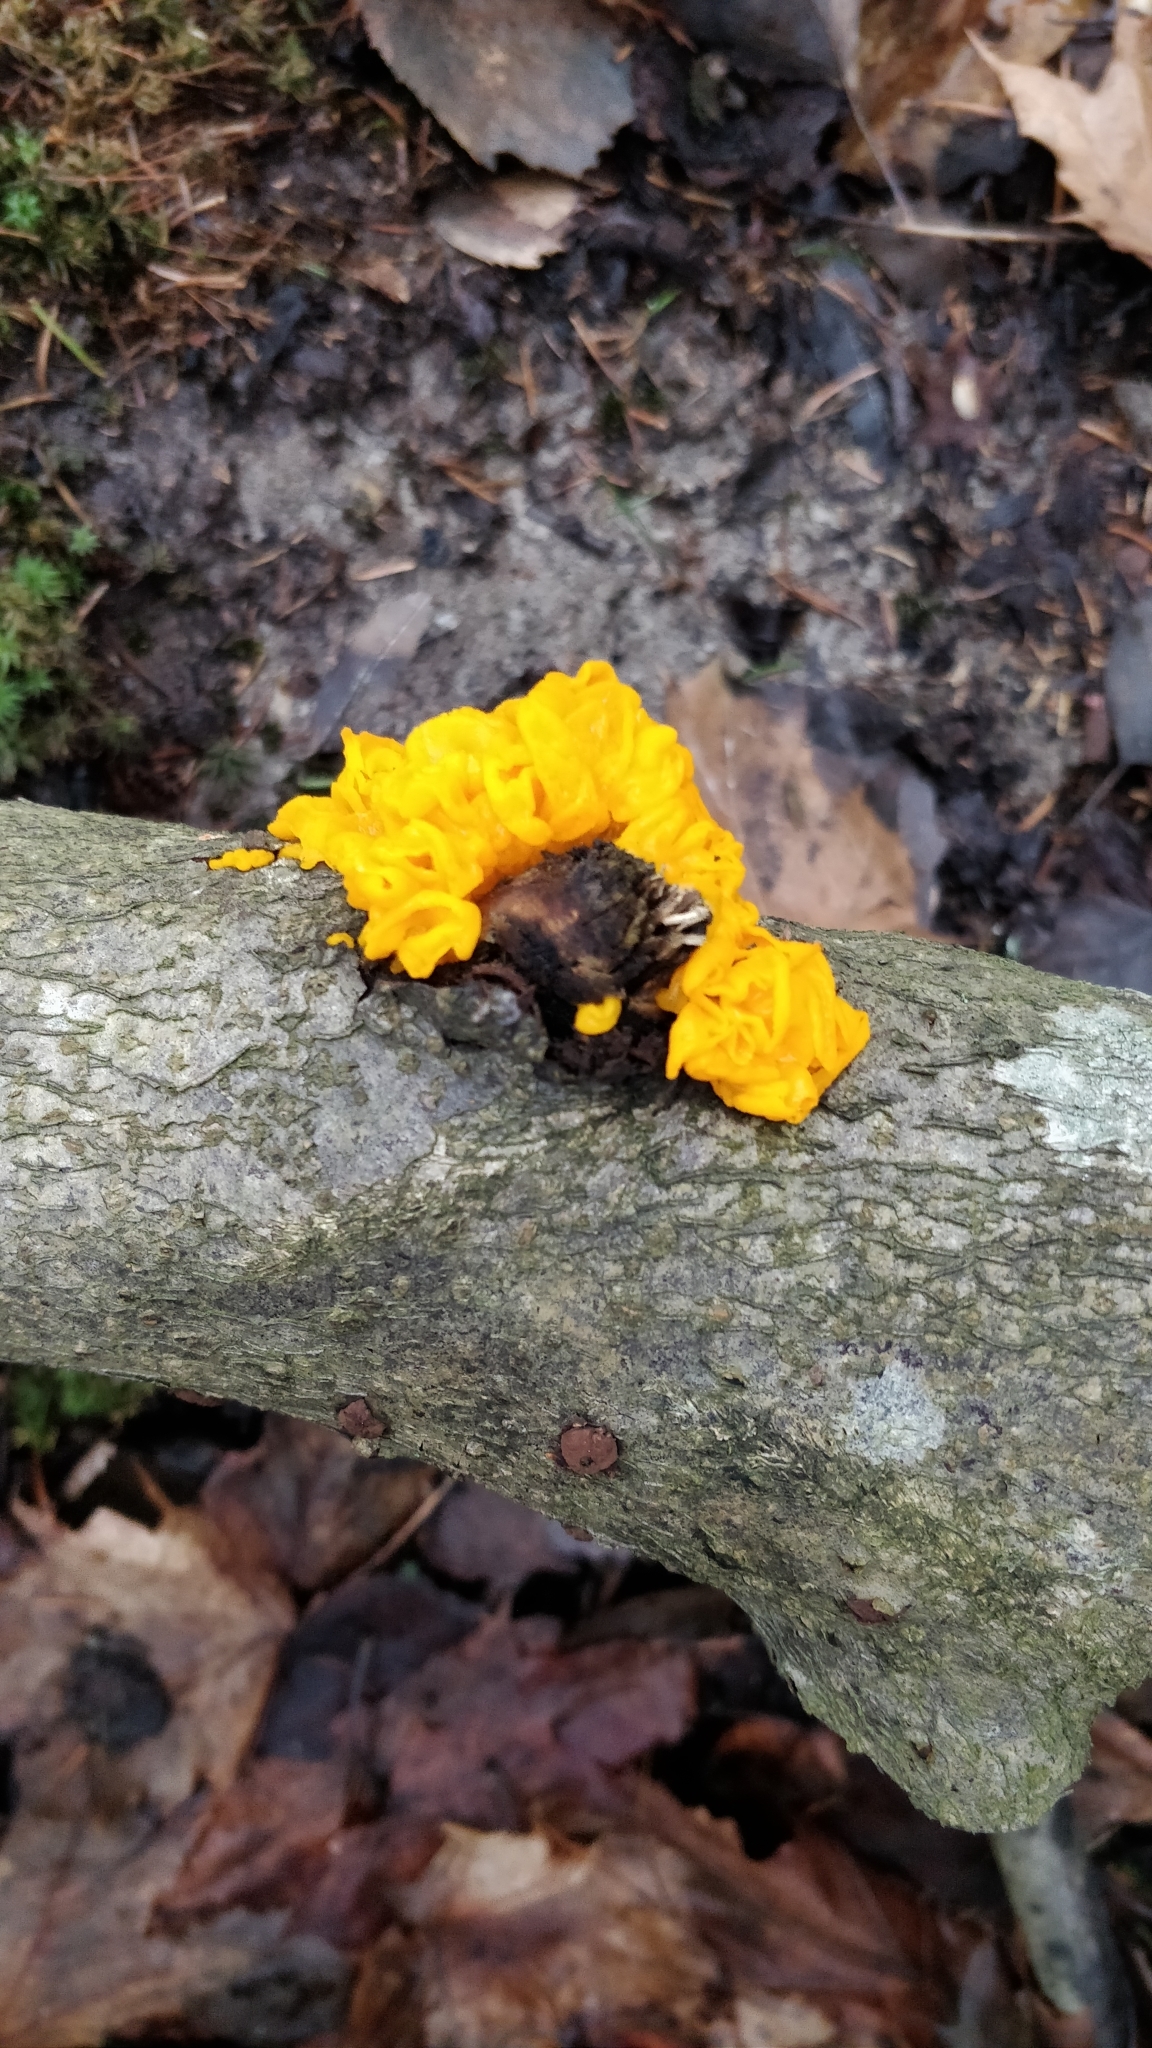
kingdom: Fungi
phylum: Basidiomycota
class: Tremellomycetes
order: Tremellales
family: Tremellaceae
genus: Tremella
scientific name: Tremella mesenterica
